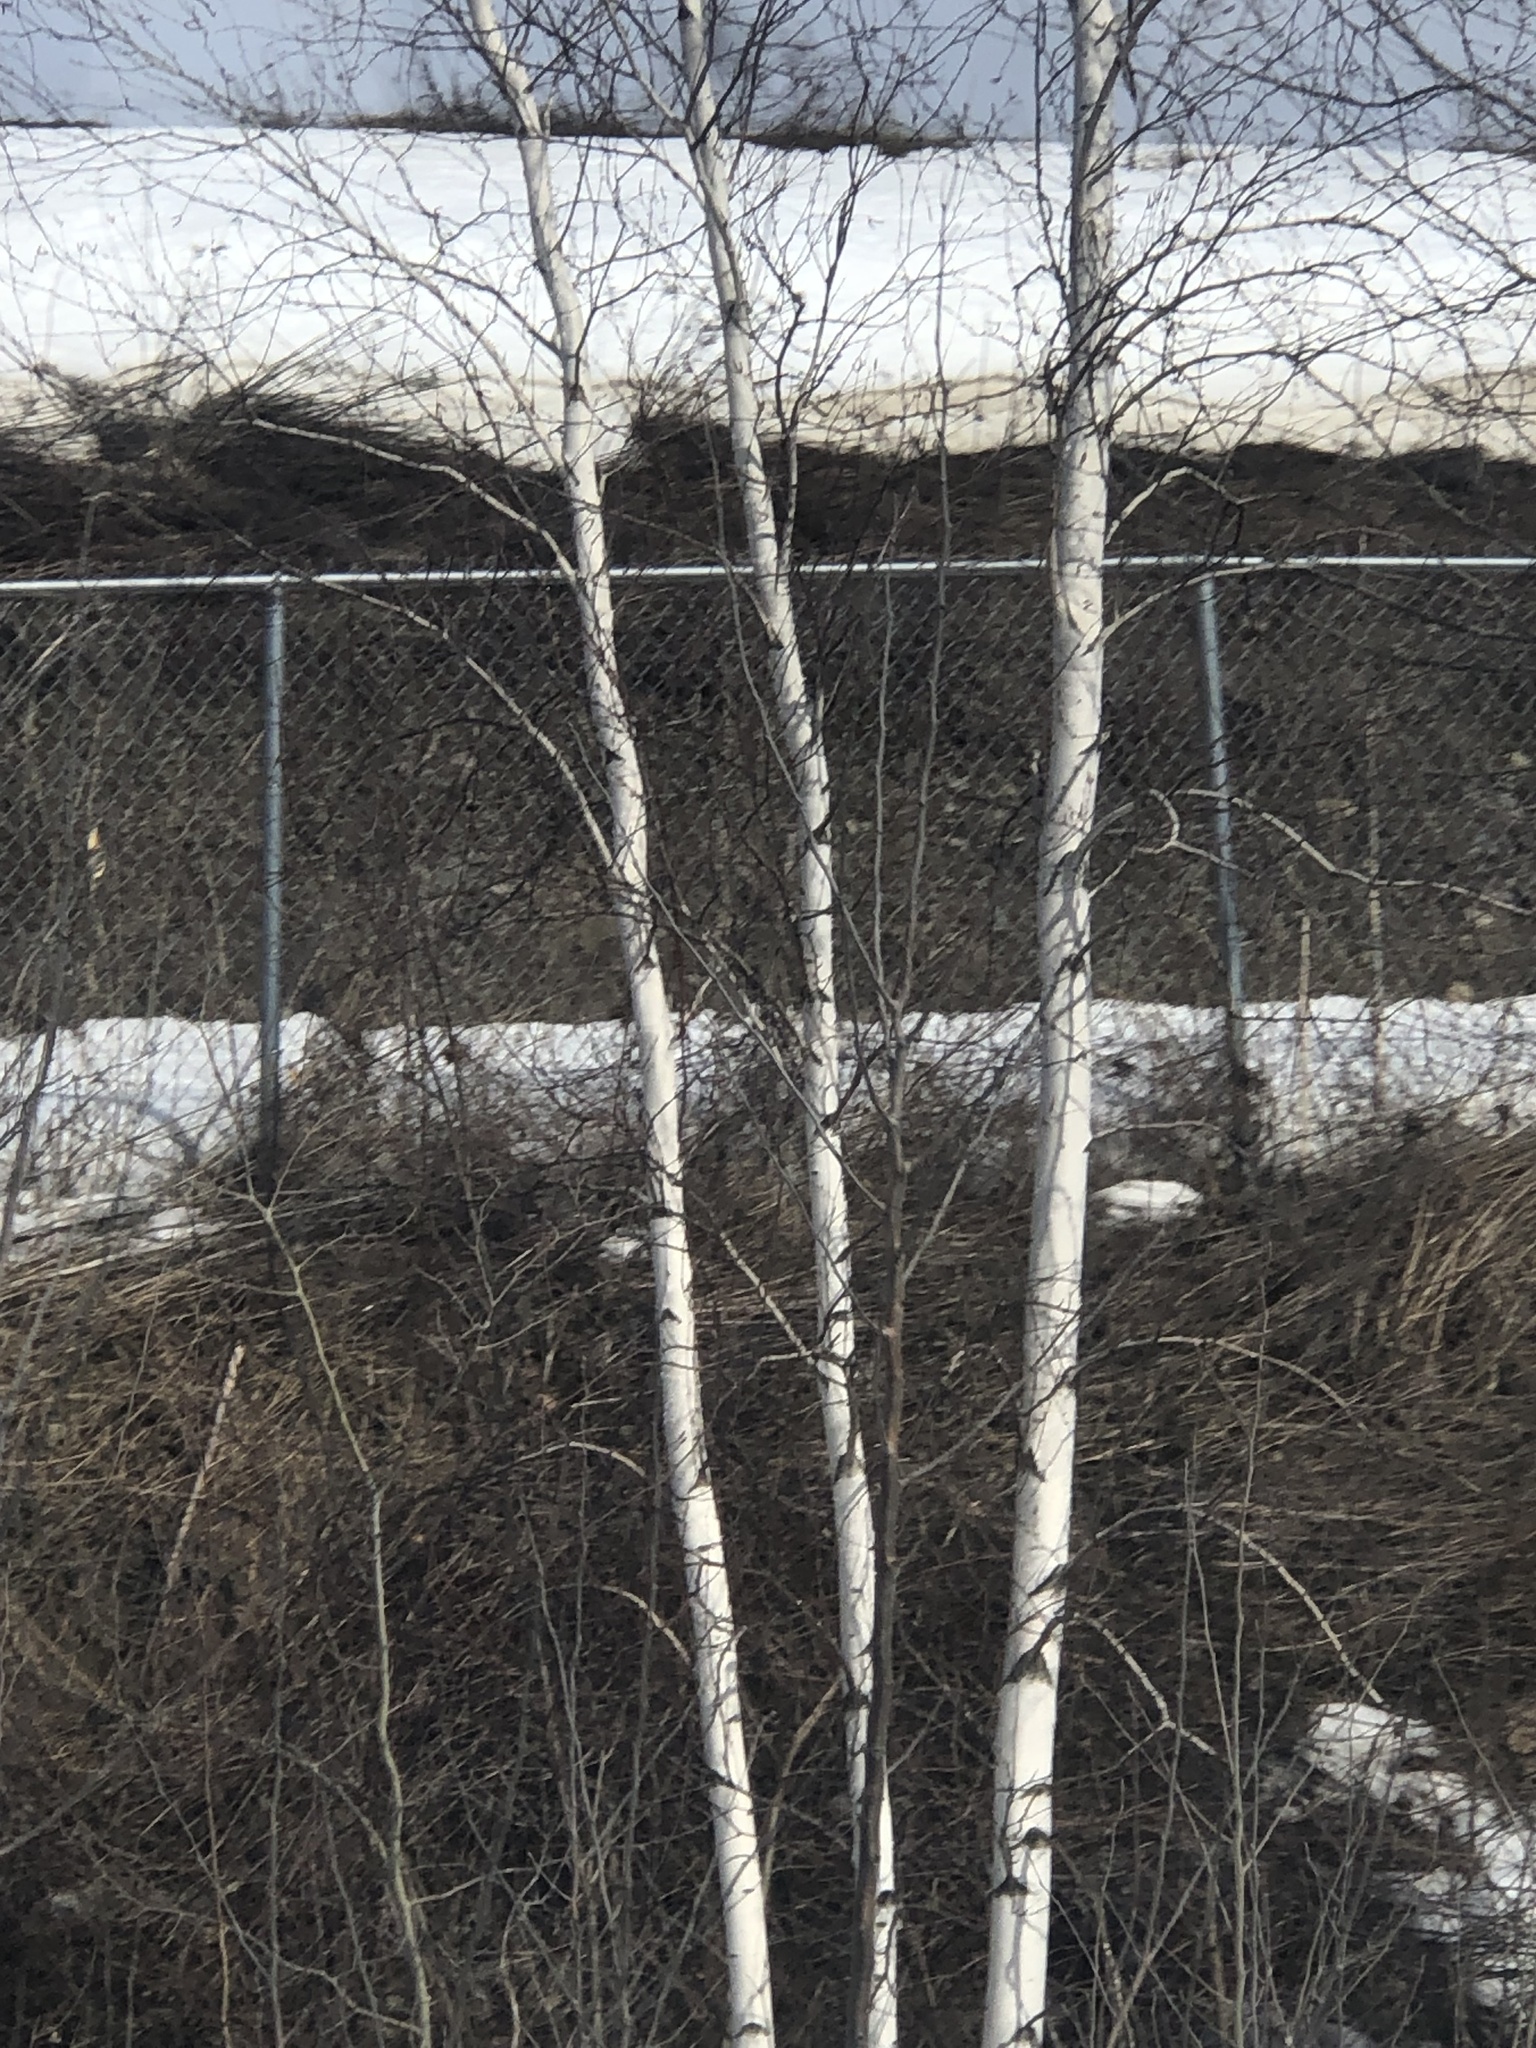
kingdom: Plantae
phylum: Tracheophyta
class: Magnoliopsida
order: Fagales
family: Betulaceae
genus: Betula
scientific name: Betula papyrifera
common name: Paper birch
